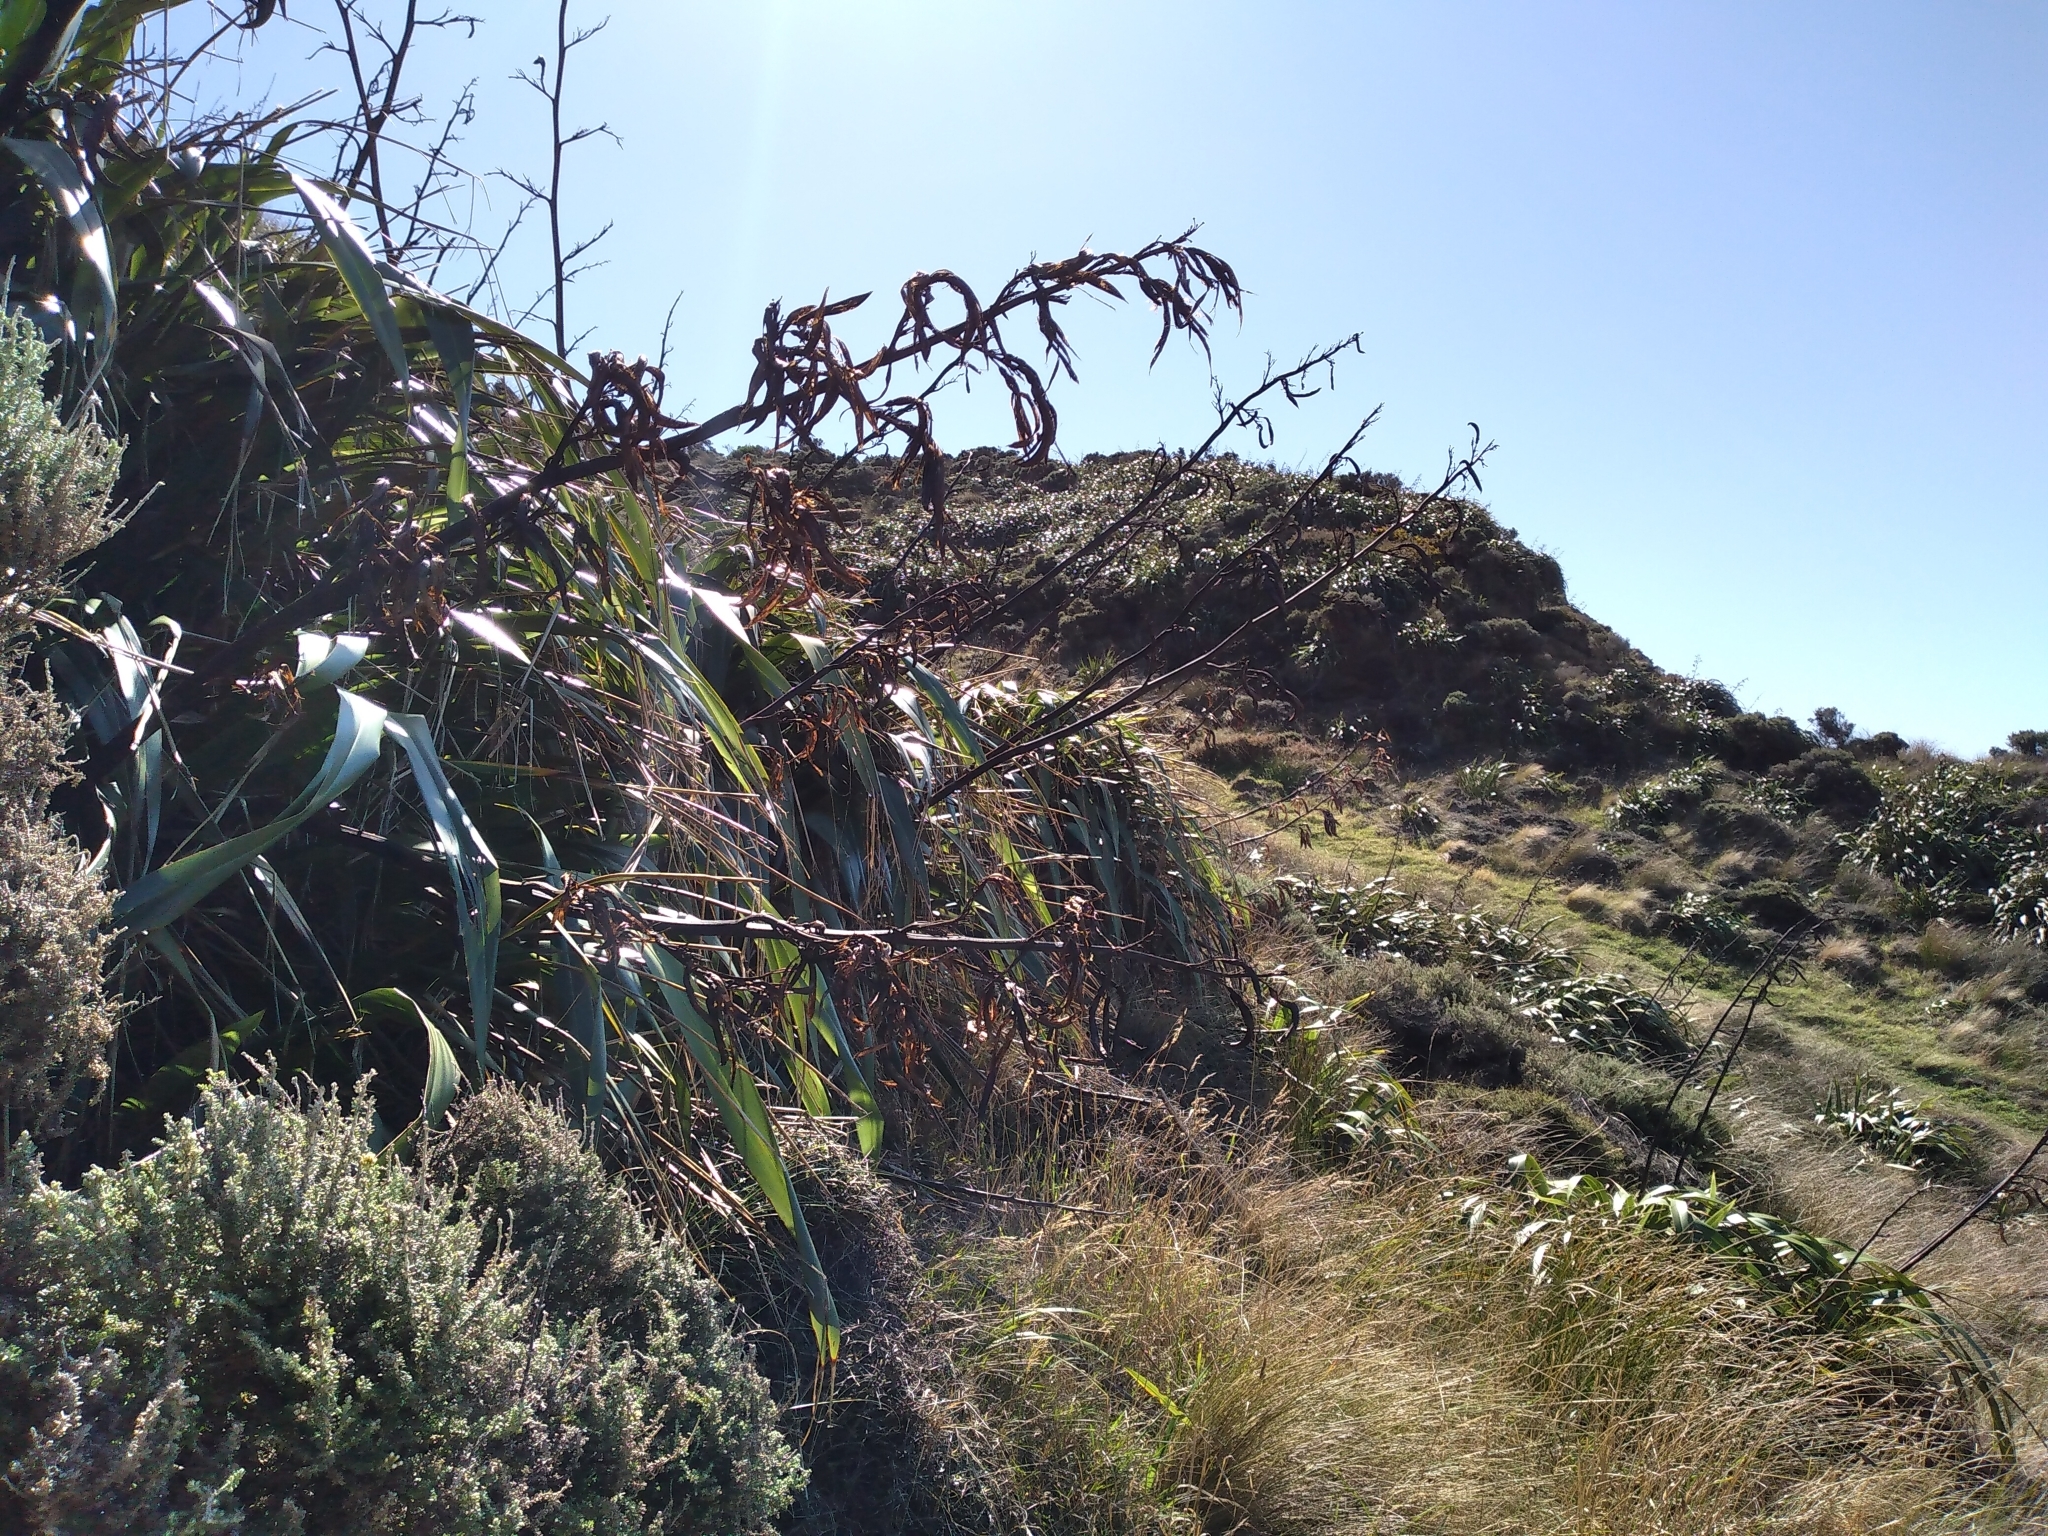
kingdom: Plantae
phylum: Tracheophyta
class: Liliopsida
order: Asparagales
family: Asphodelaceae
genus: Phormium
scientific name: Phormium colensoi
